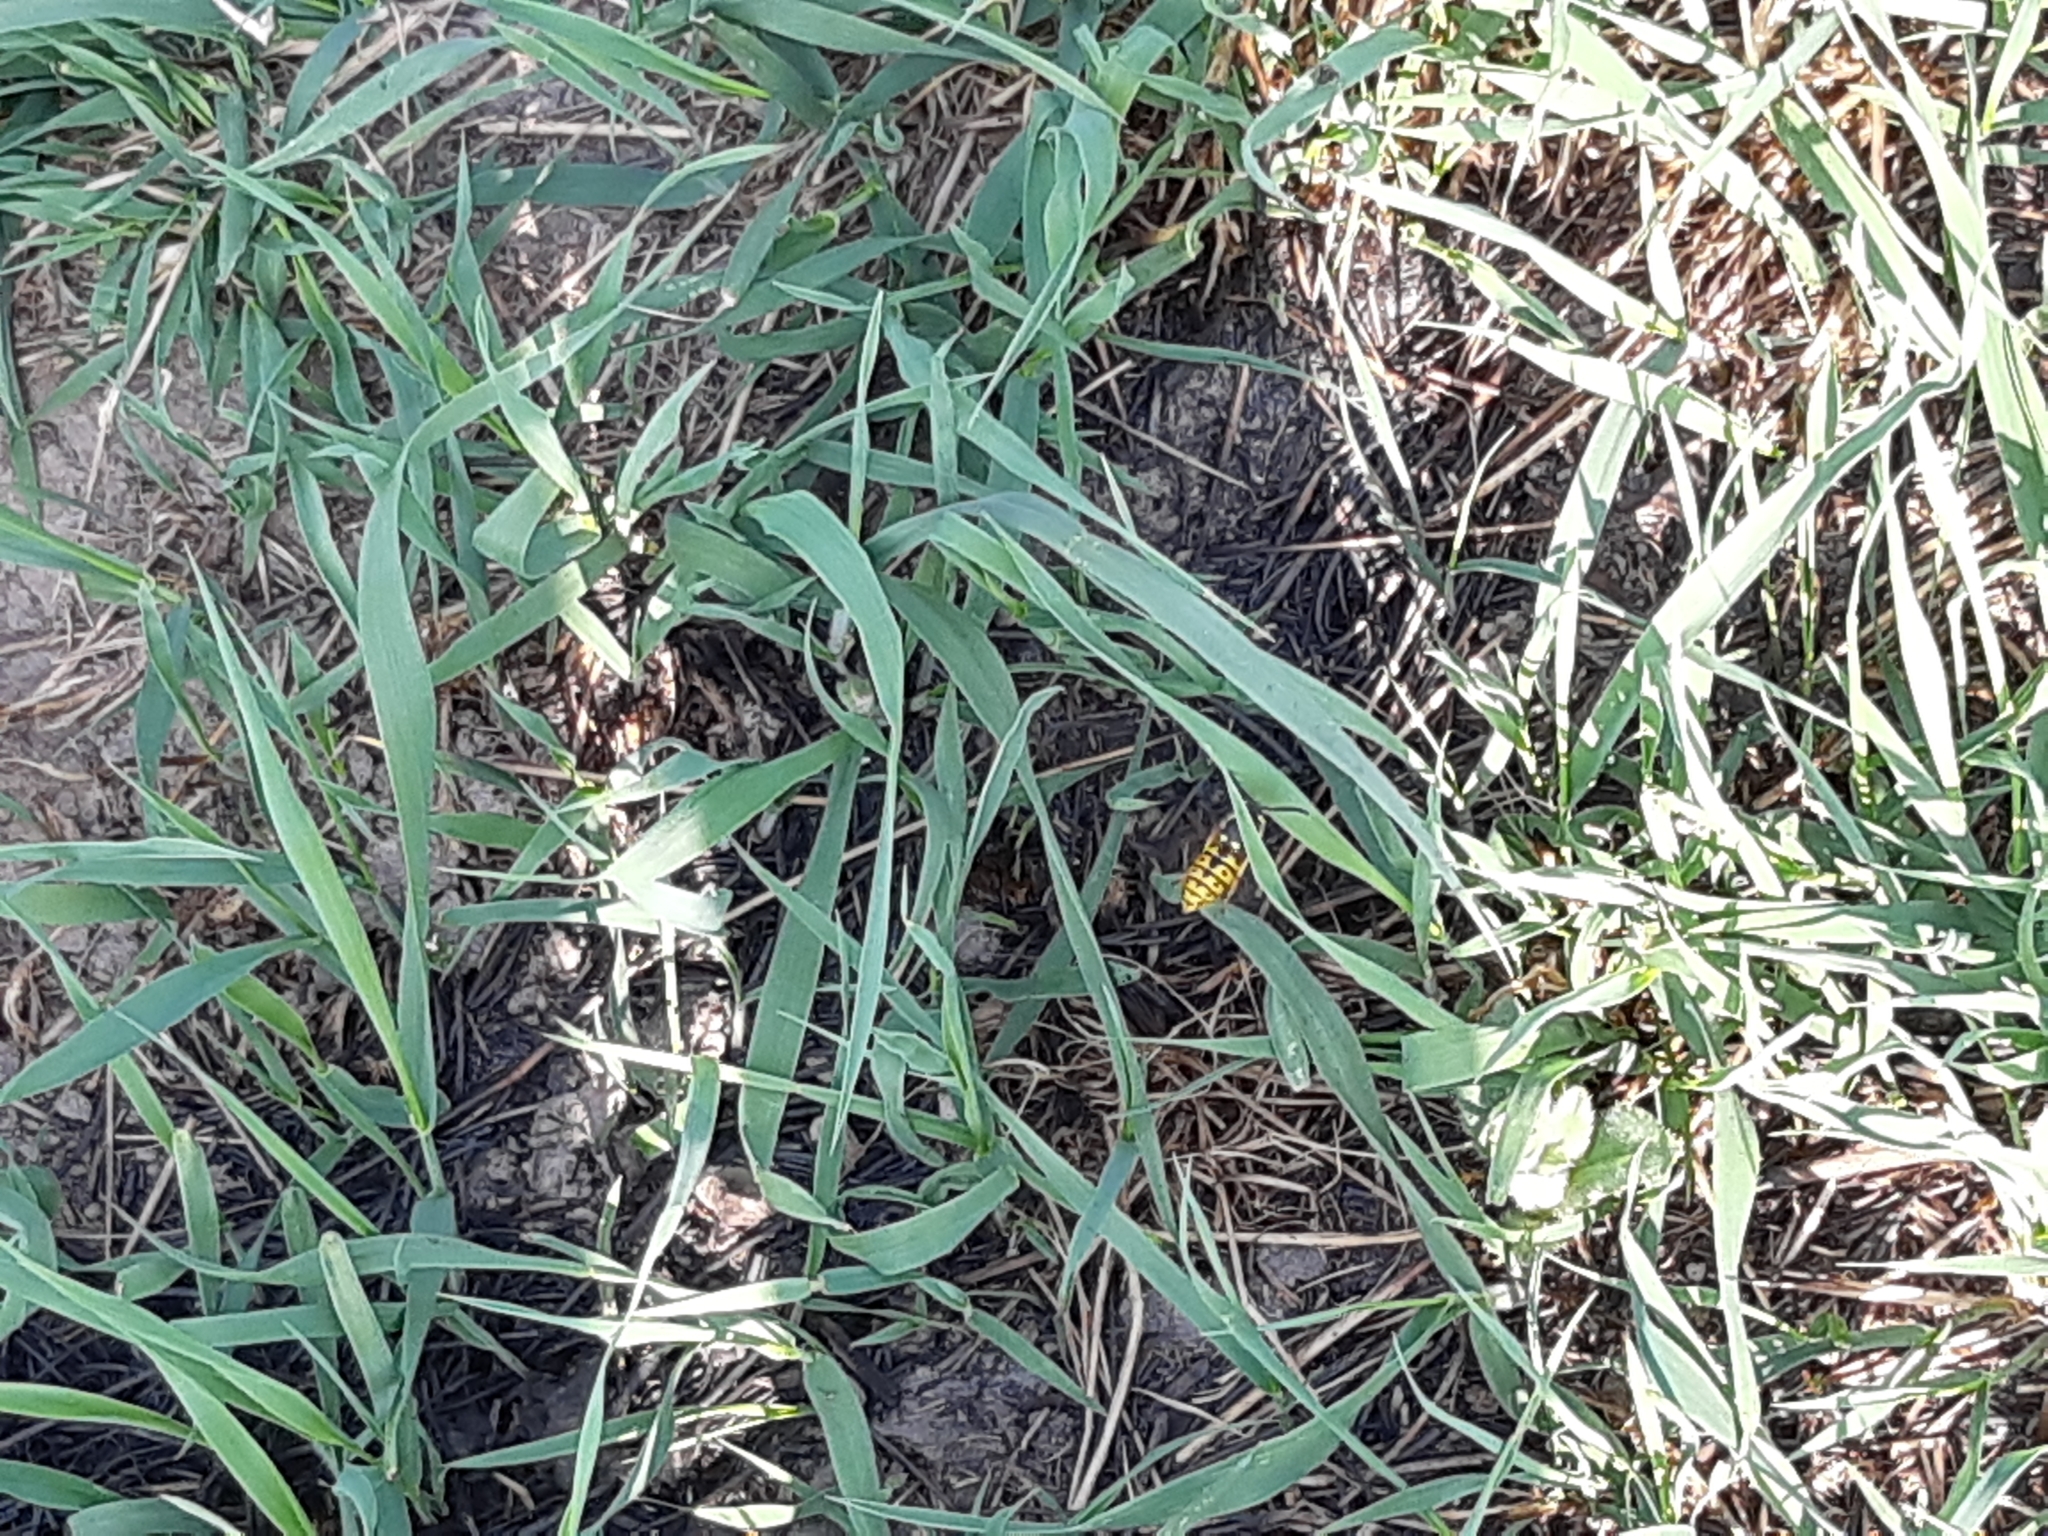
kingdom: Animalia
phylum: Arthropoda
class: Insecta
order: Hymenoptera
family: Vespidae
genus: Vespula
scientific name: Vespula germanica
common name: German wasp
